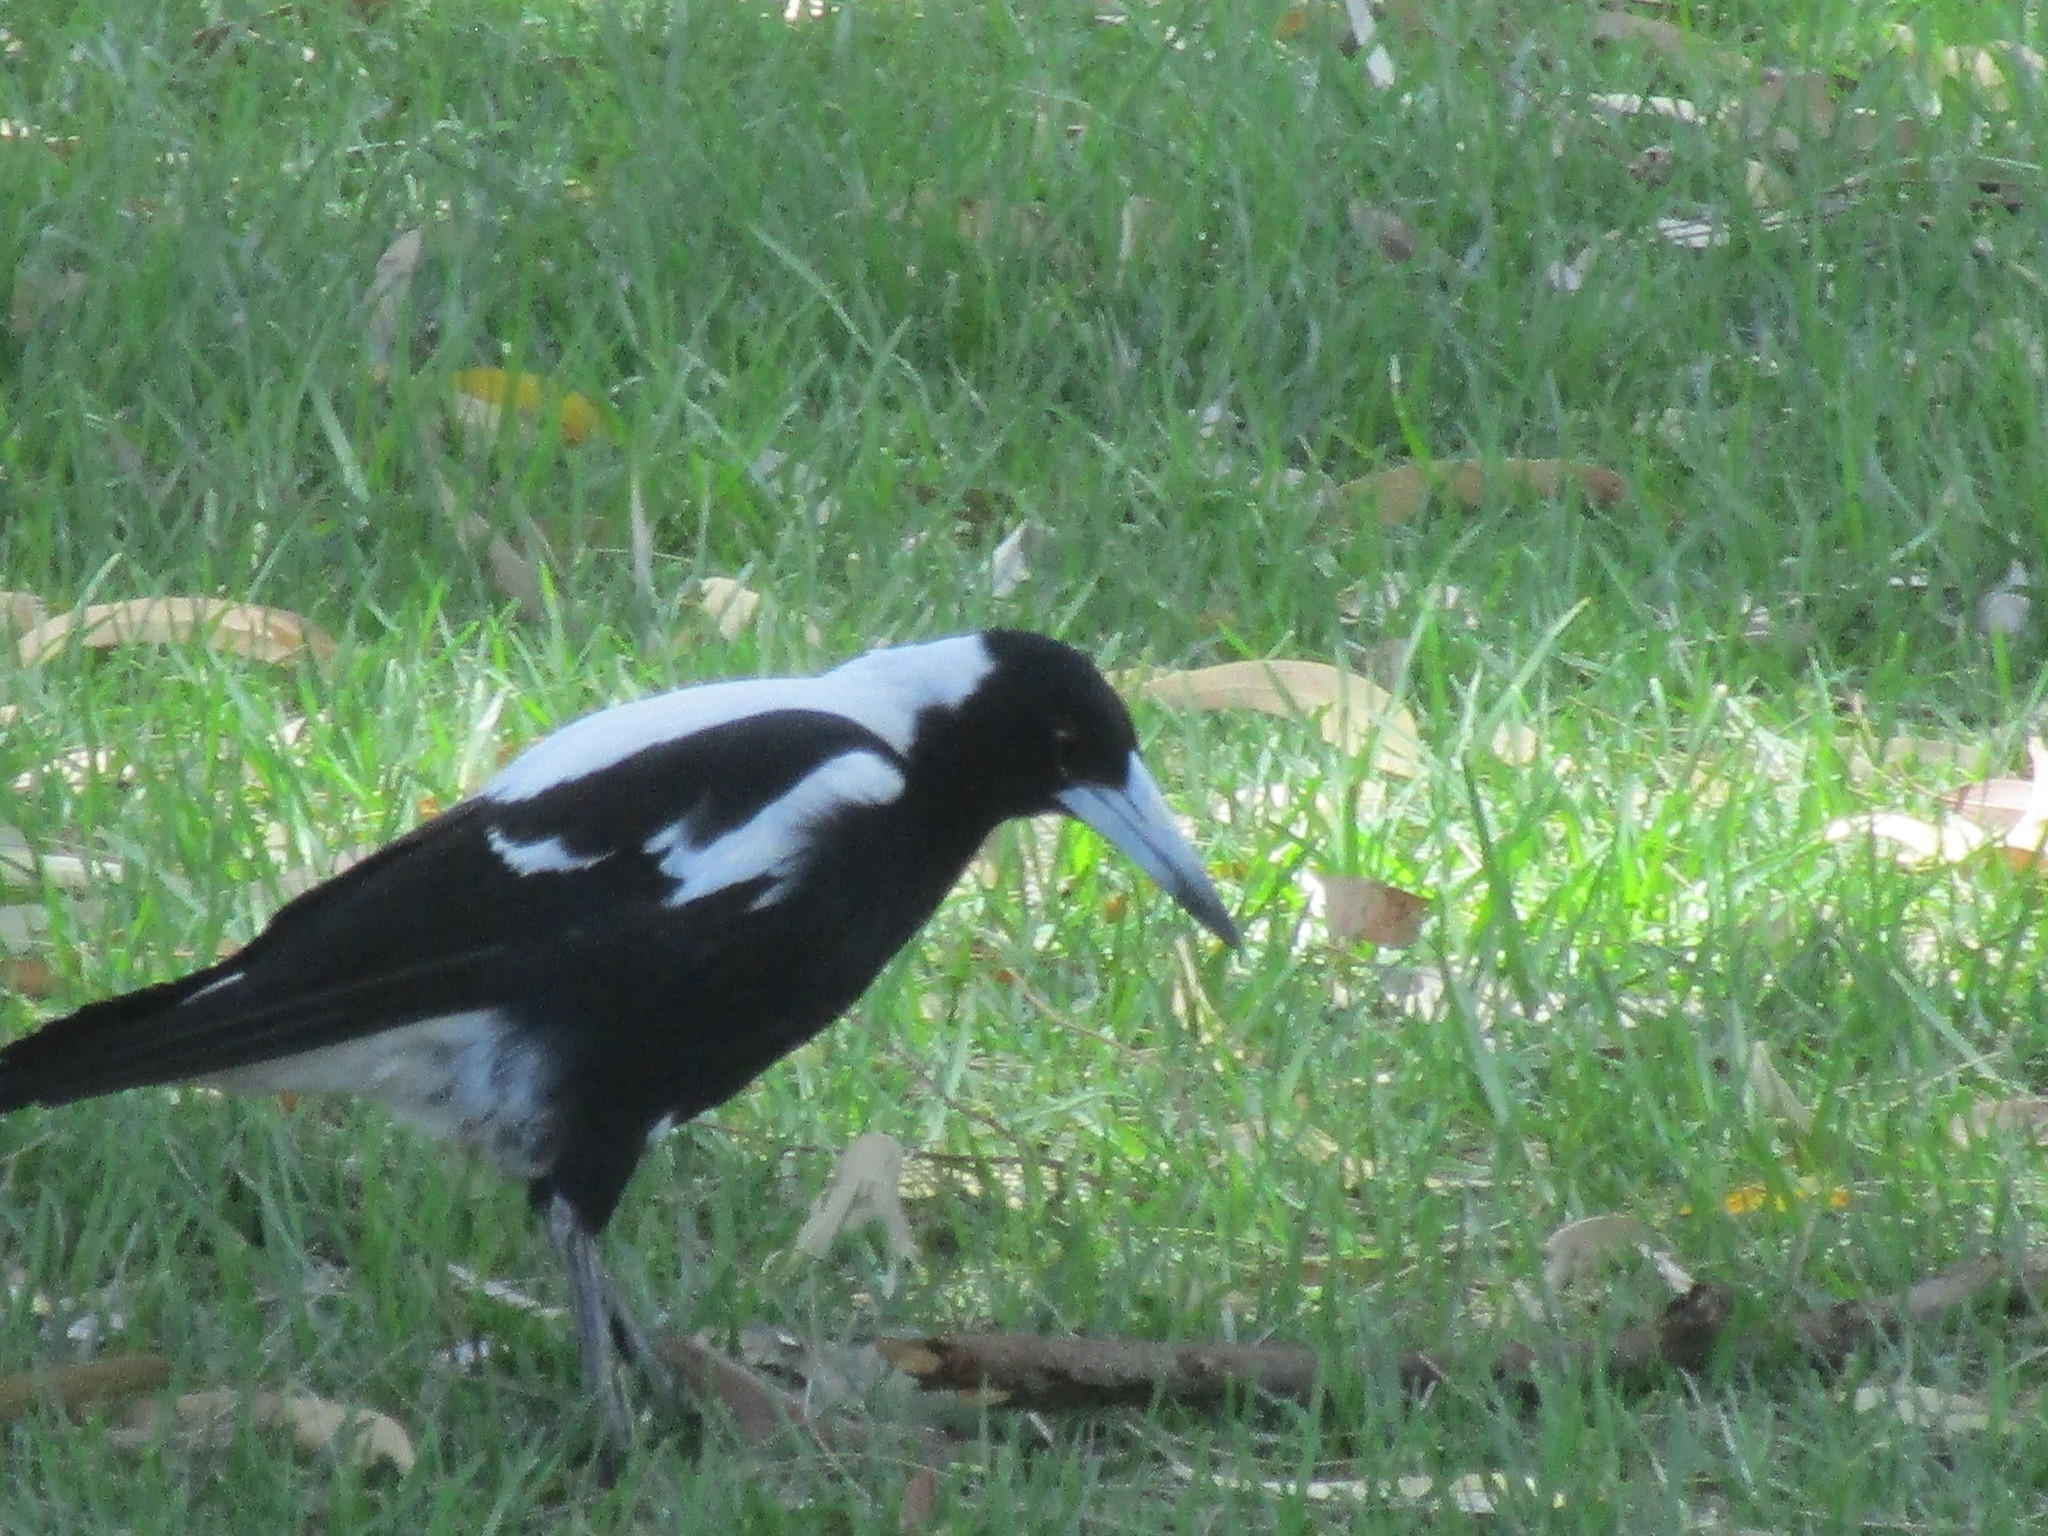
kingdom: Animalia
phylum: Chordata
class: Aves
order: Passeriformes
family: Cracticidae
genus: Gymnorhina
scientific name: Gymnorhina tibicen
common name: Australian magpie
